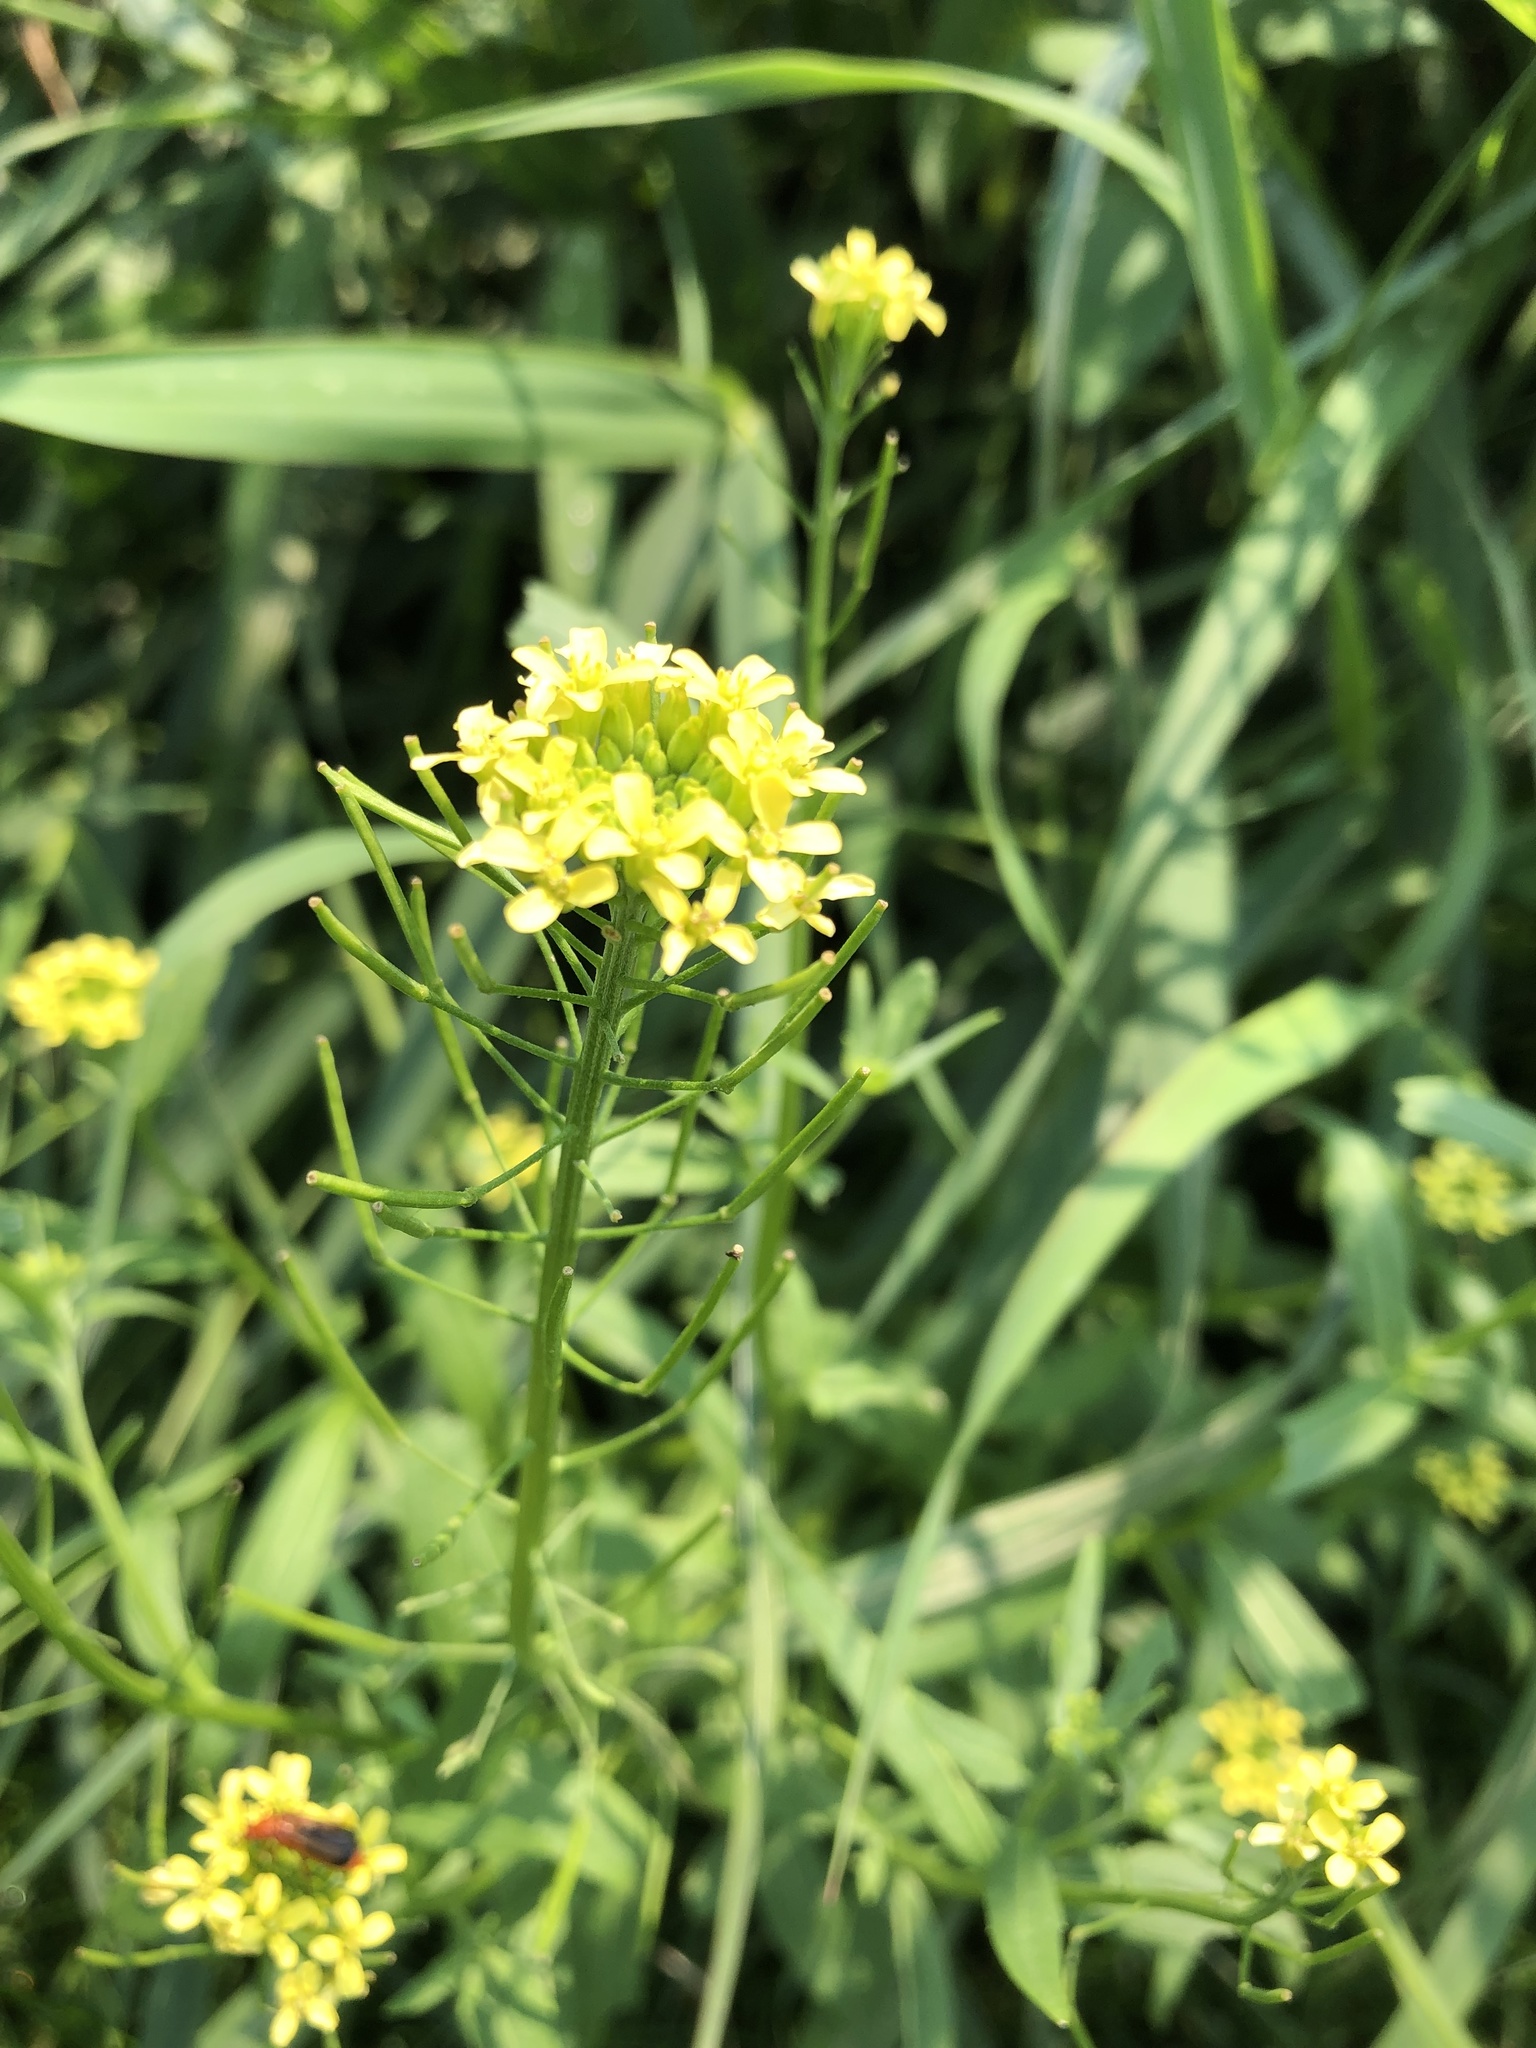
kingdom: Plantae
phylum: Tracheophyta
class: Magnoliopsida
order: Brassicales
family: Brassicaceae
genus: Erysimum
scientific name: Erysimum cheiranthoides
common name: Treacle mustard
